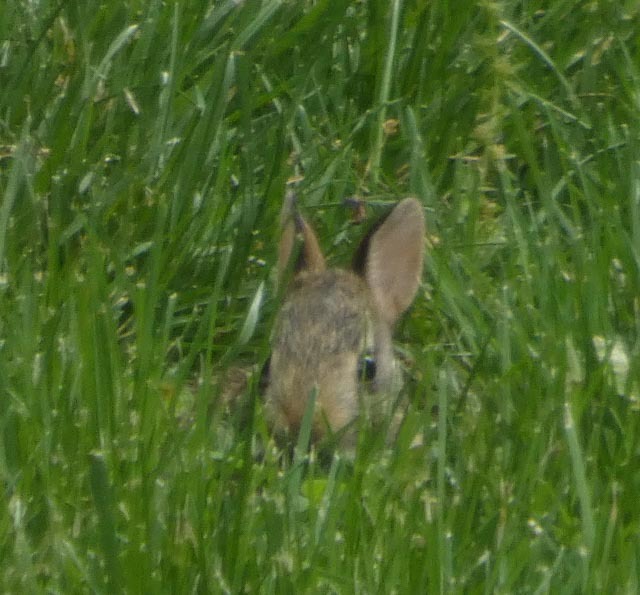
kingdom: Animalia
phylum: Chordata
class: Mammalia
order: Lagomorpha
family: Leporidae
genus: Sylvilagus
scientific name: Sylvilagus floridanus
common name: Eastern cottontail
